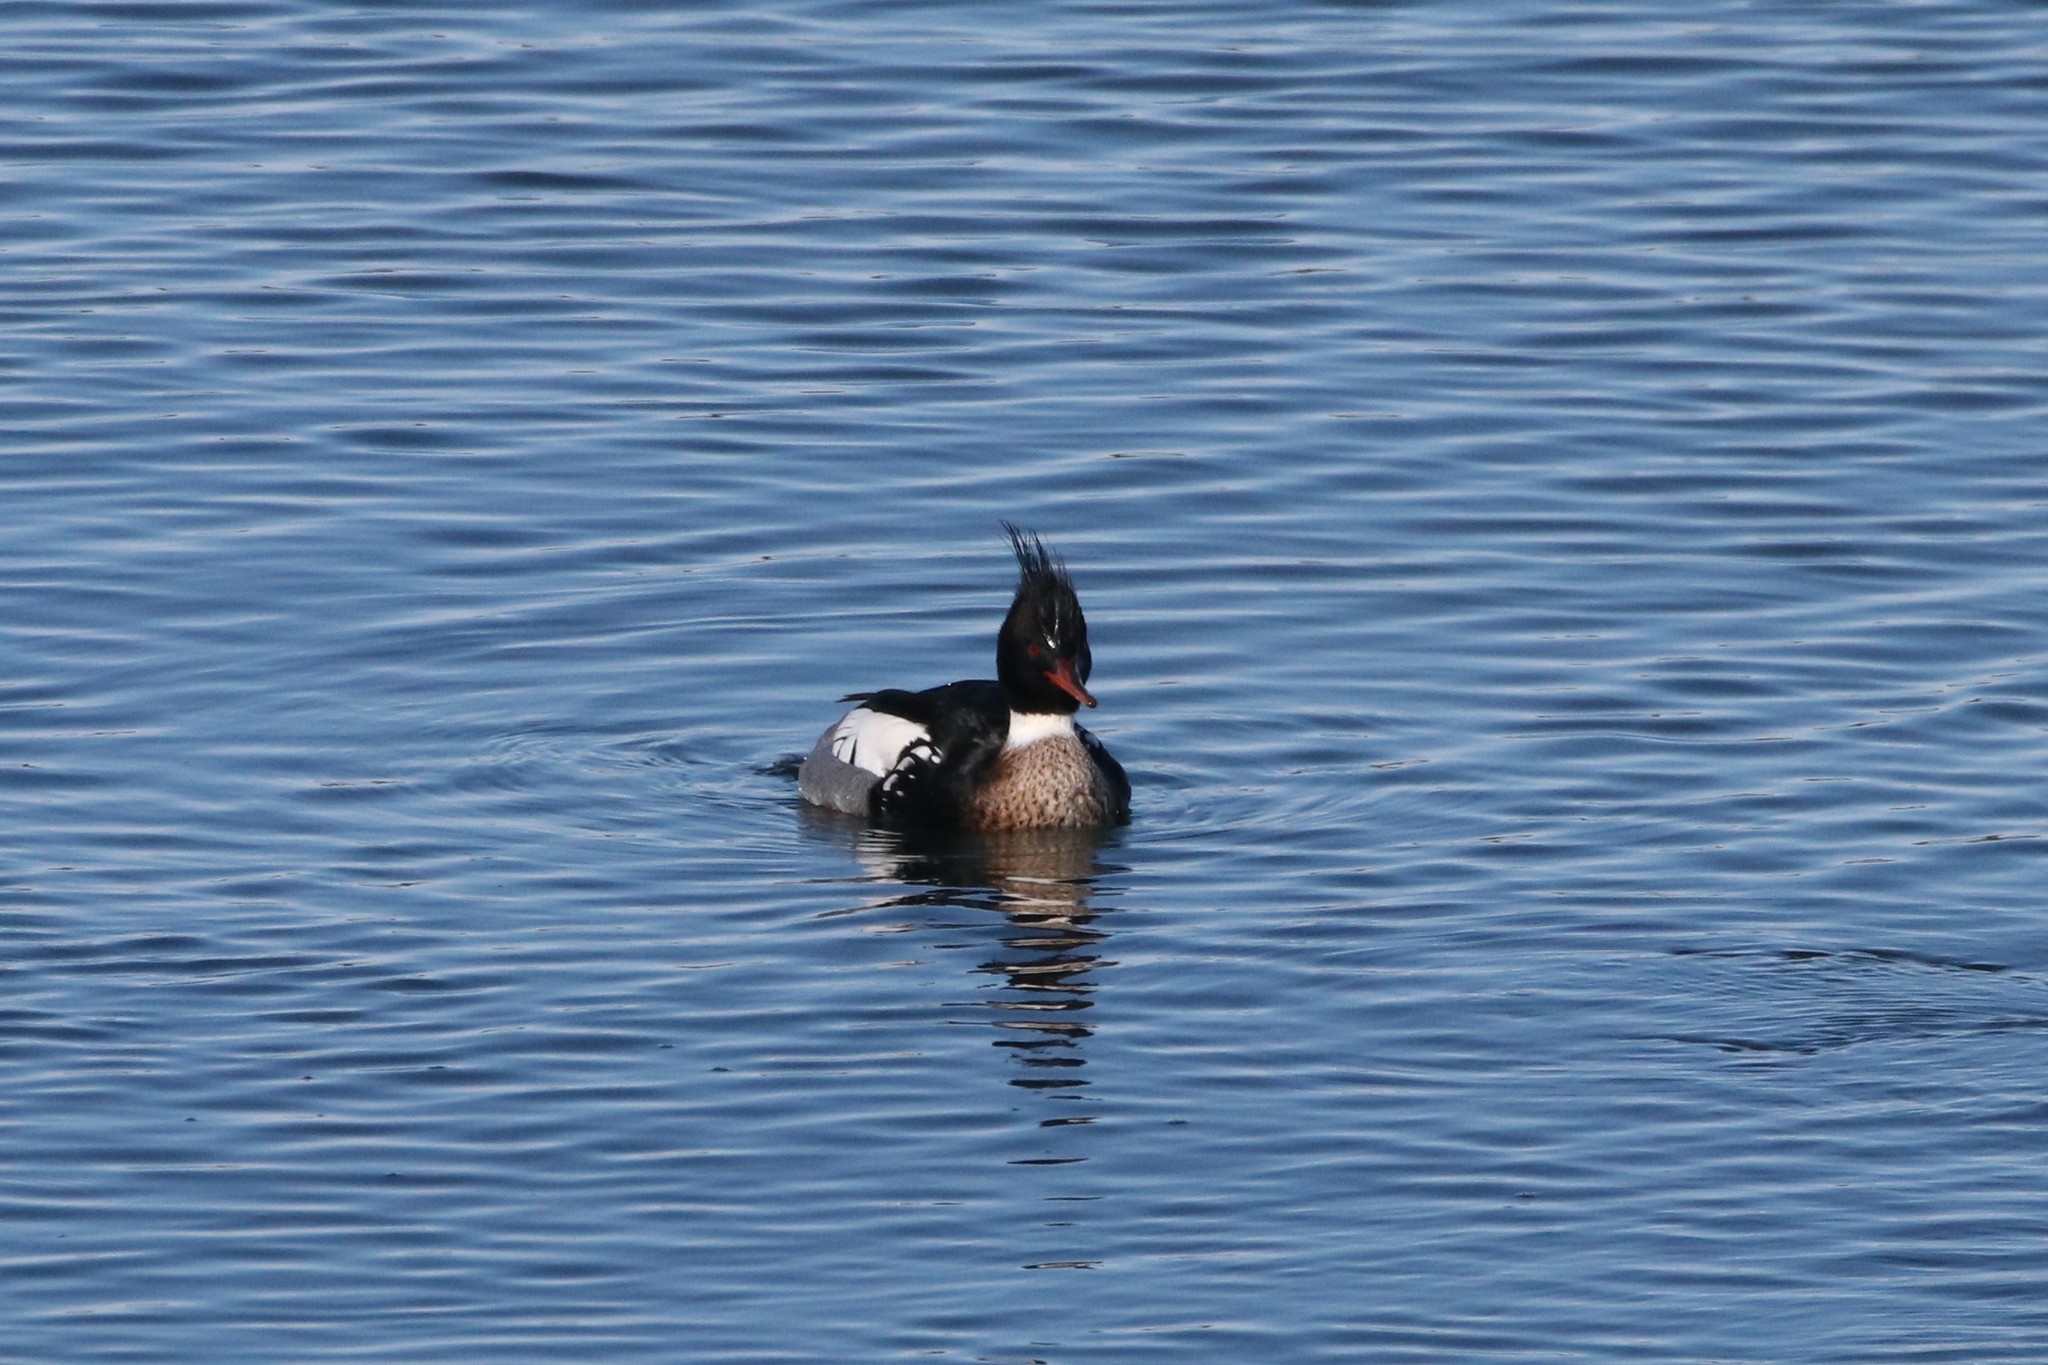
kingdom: Animalia
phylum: Chordata
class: Aves
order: Anseriformes
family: Anatidae
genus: Mergus
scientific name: Mergus serrator
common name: Red-breasted merganser
